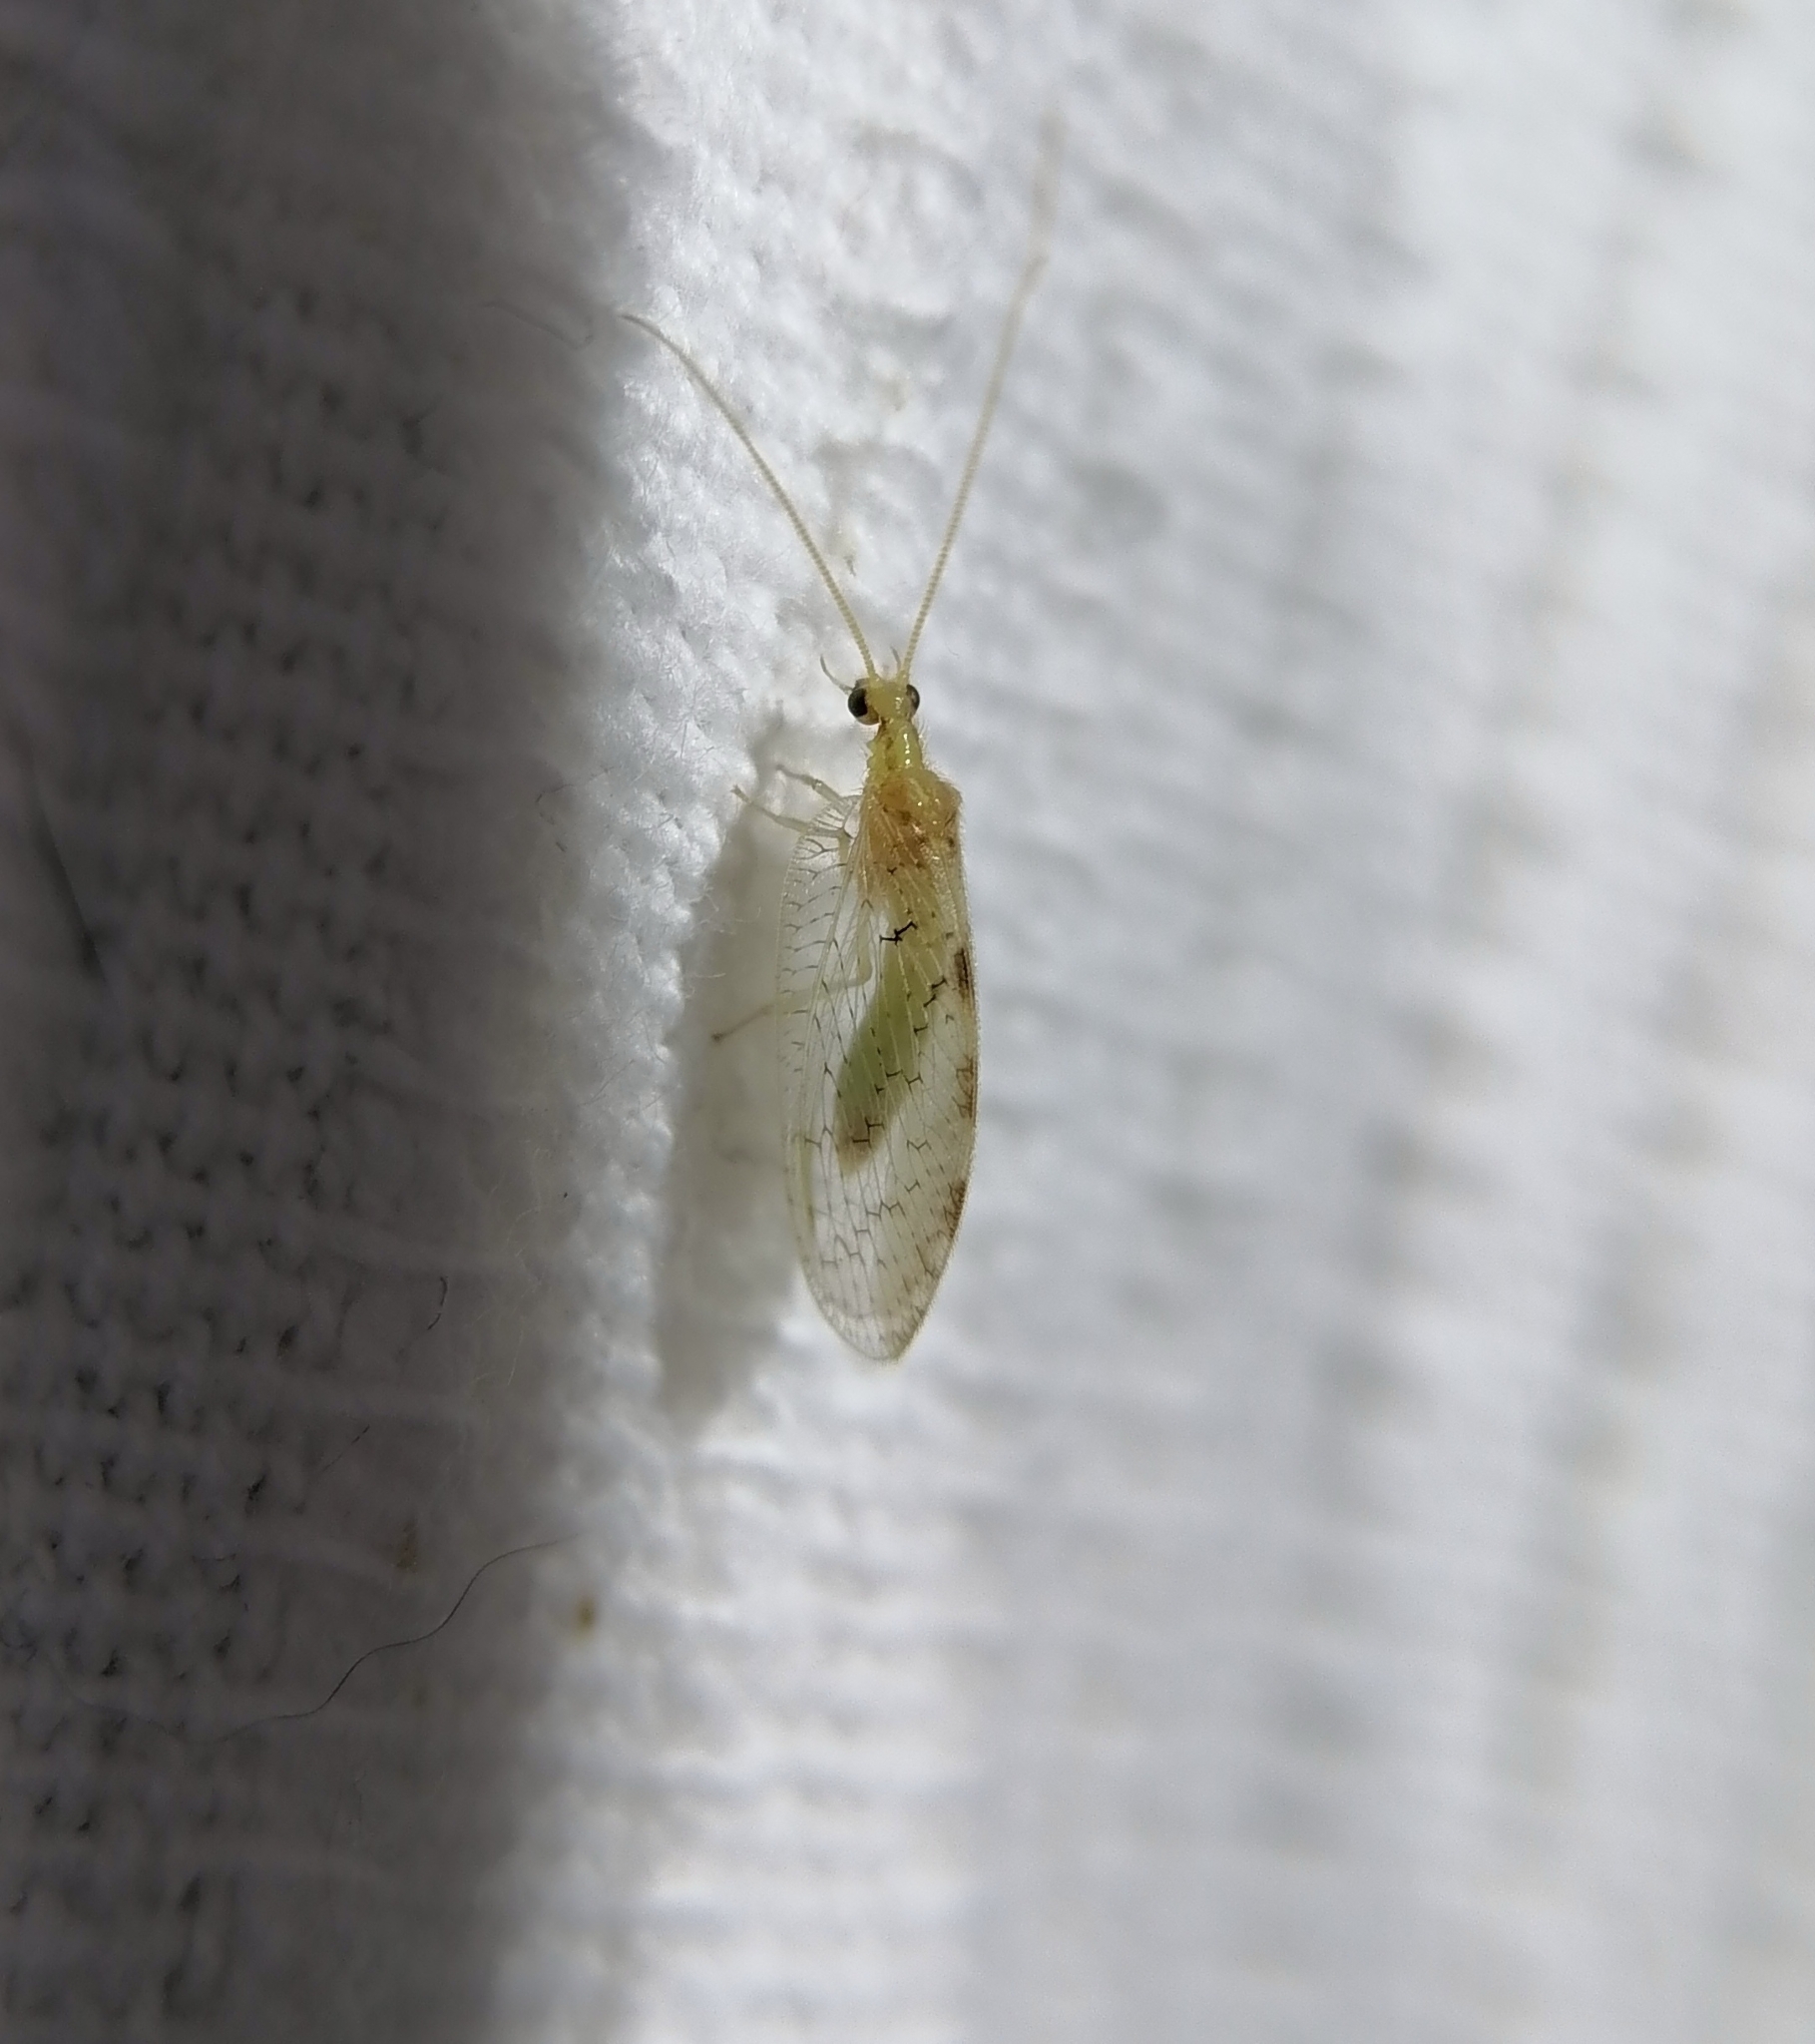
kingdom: Animalia
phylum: Arthropoda
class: Insecta
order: Neuroptera
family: Hemerobiidae
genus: Hemerobius
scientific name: Hemerobius marginatus
